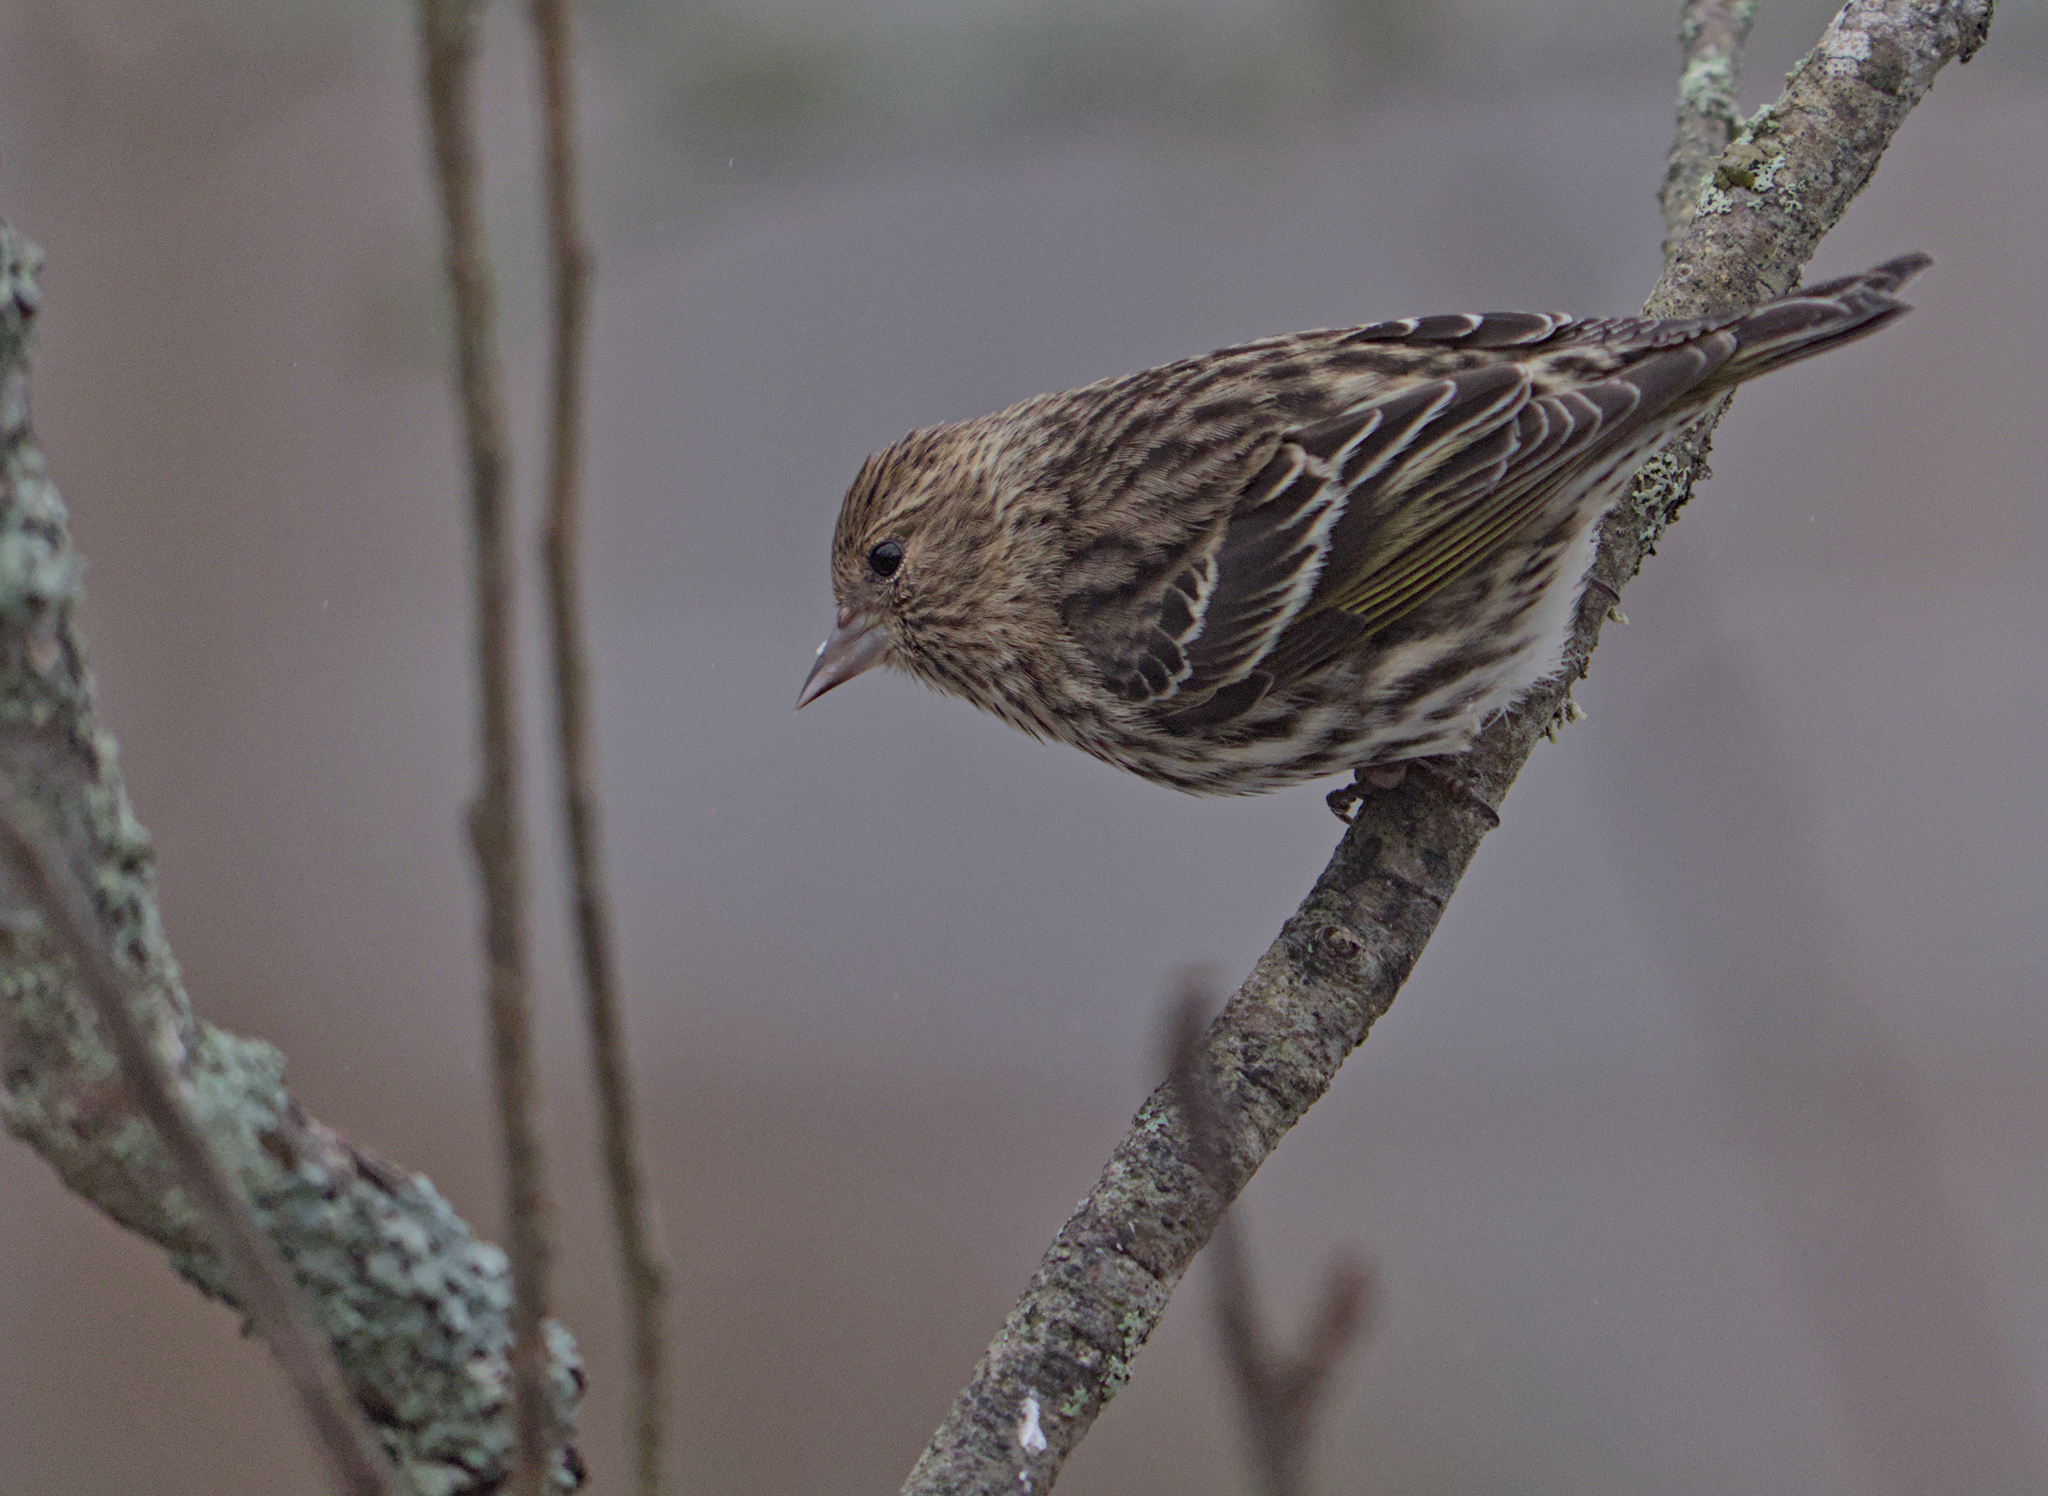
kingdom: Animalia
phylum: Chordata
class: Aves
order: Passeriformes
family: Fringillidae
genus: Spinus
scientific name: Spinus pinus
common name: Pine siskin
